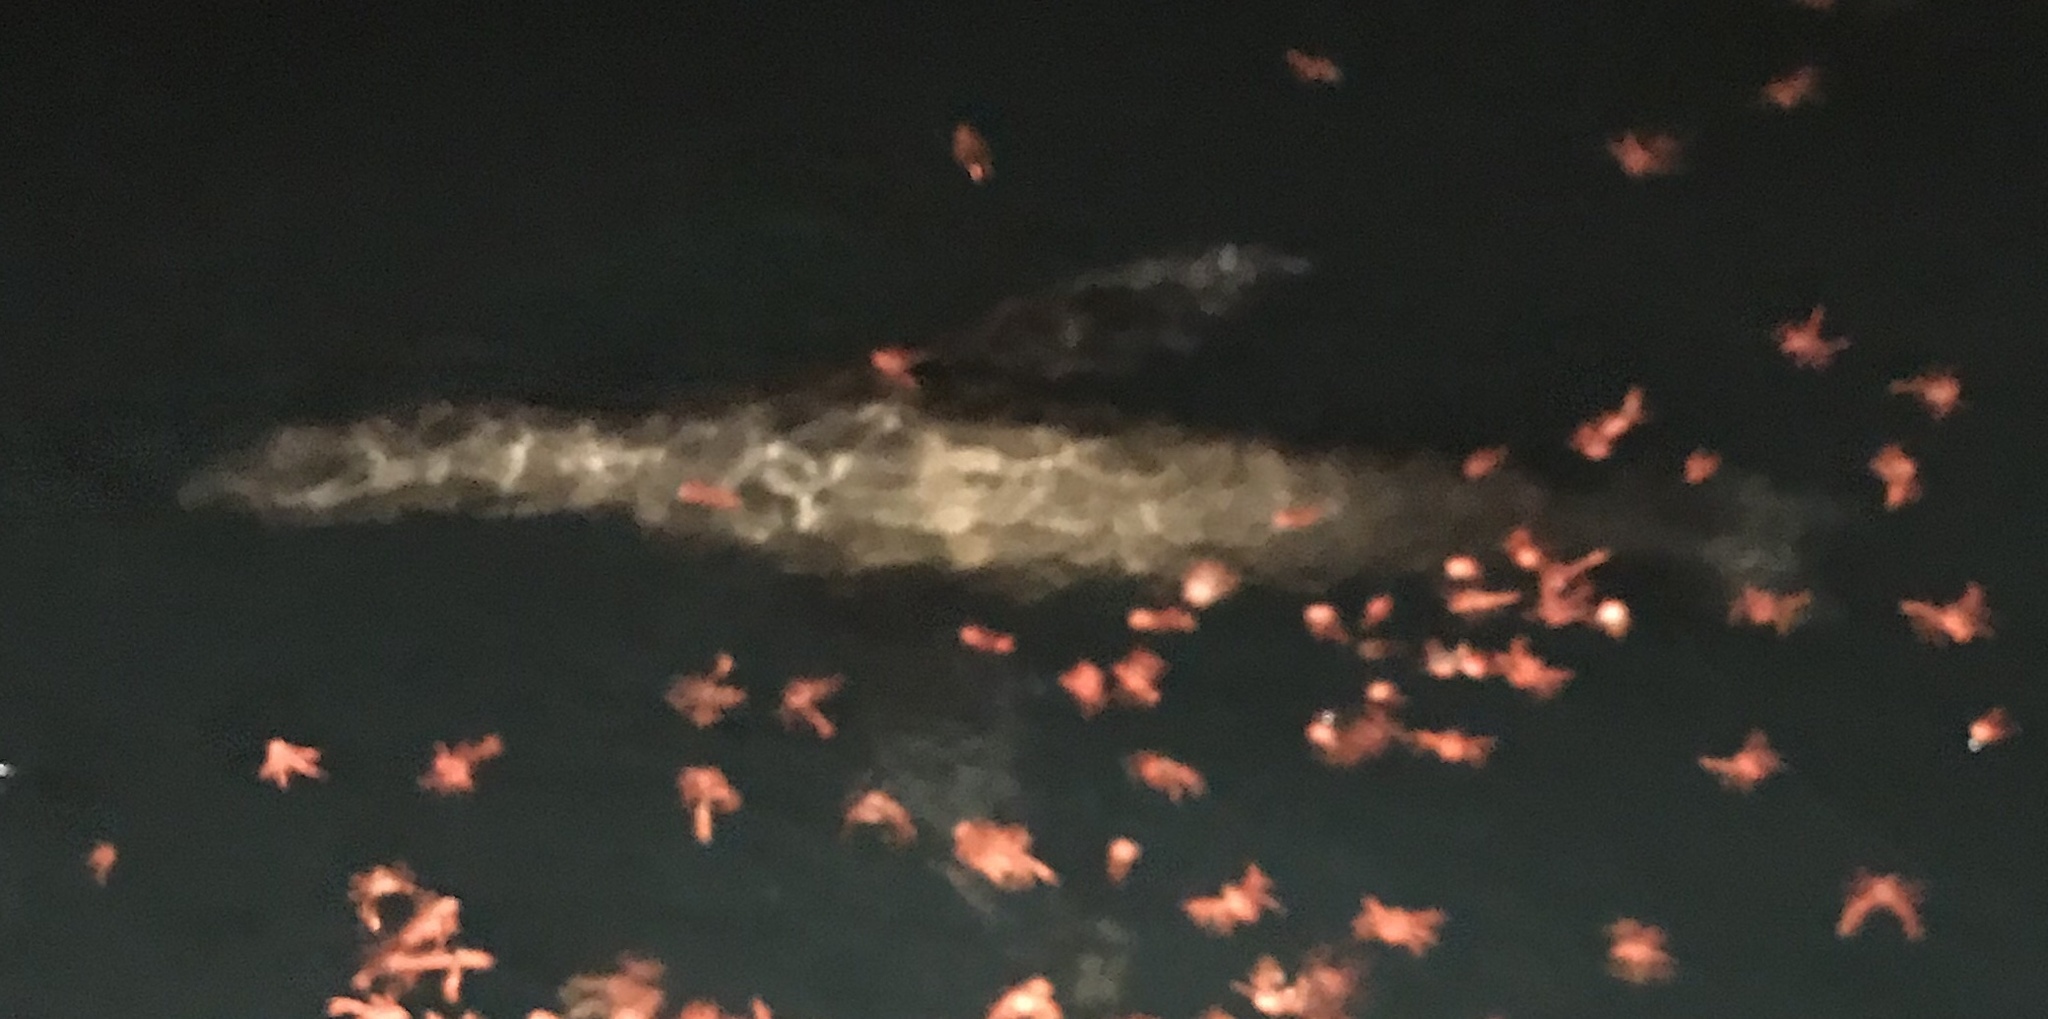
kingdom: Animalia
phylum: Chordata
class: Mammalia
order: Carnivora
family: Otariidae
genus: Zalophus
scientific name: Zalophus californianus
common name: California sea lion
